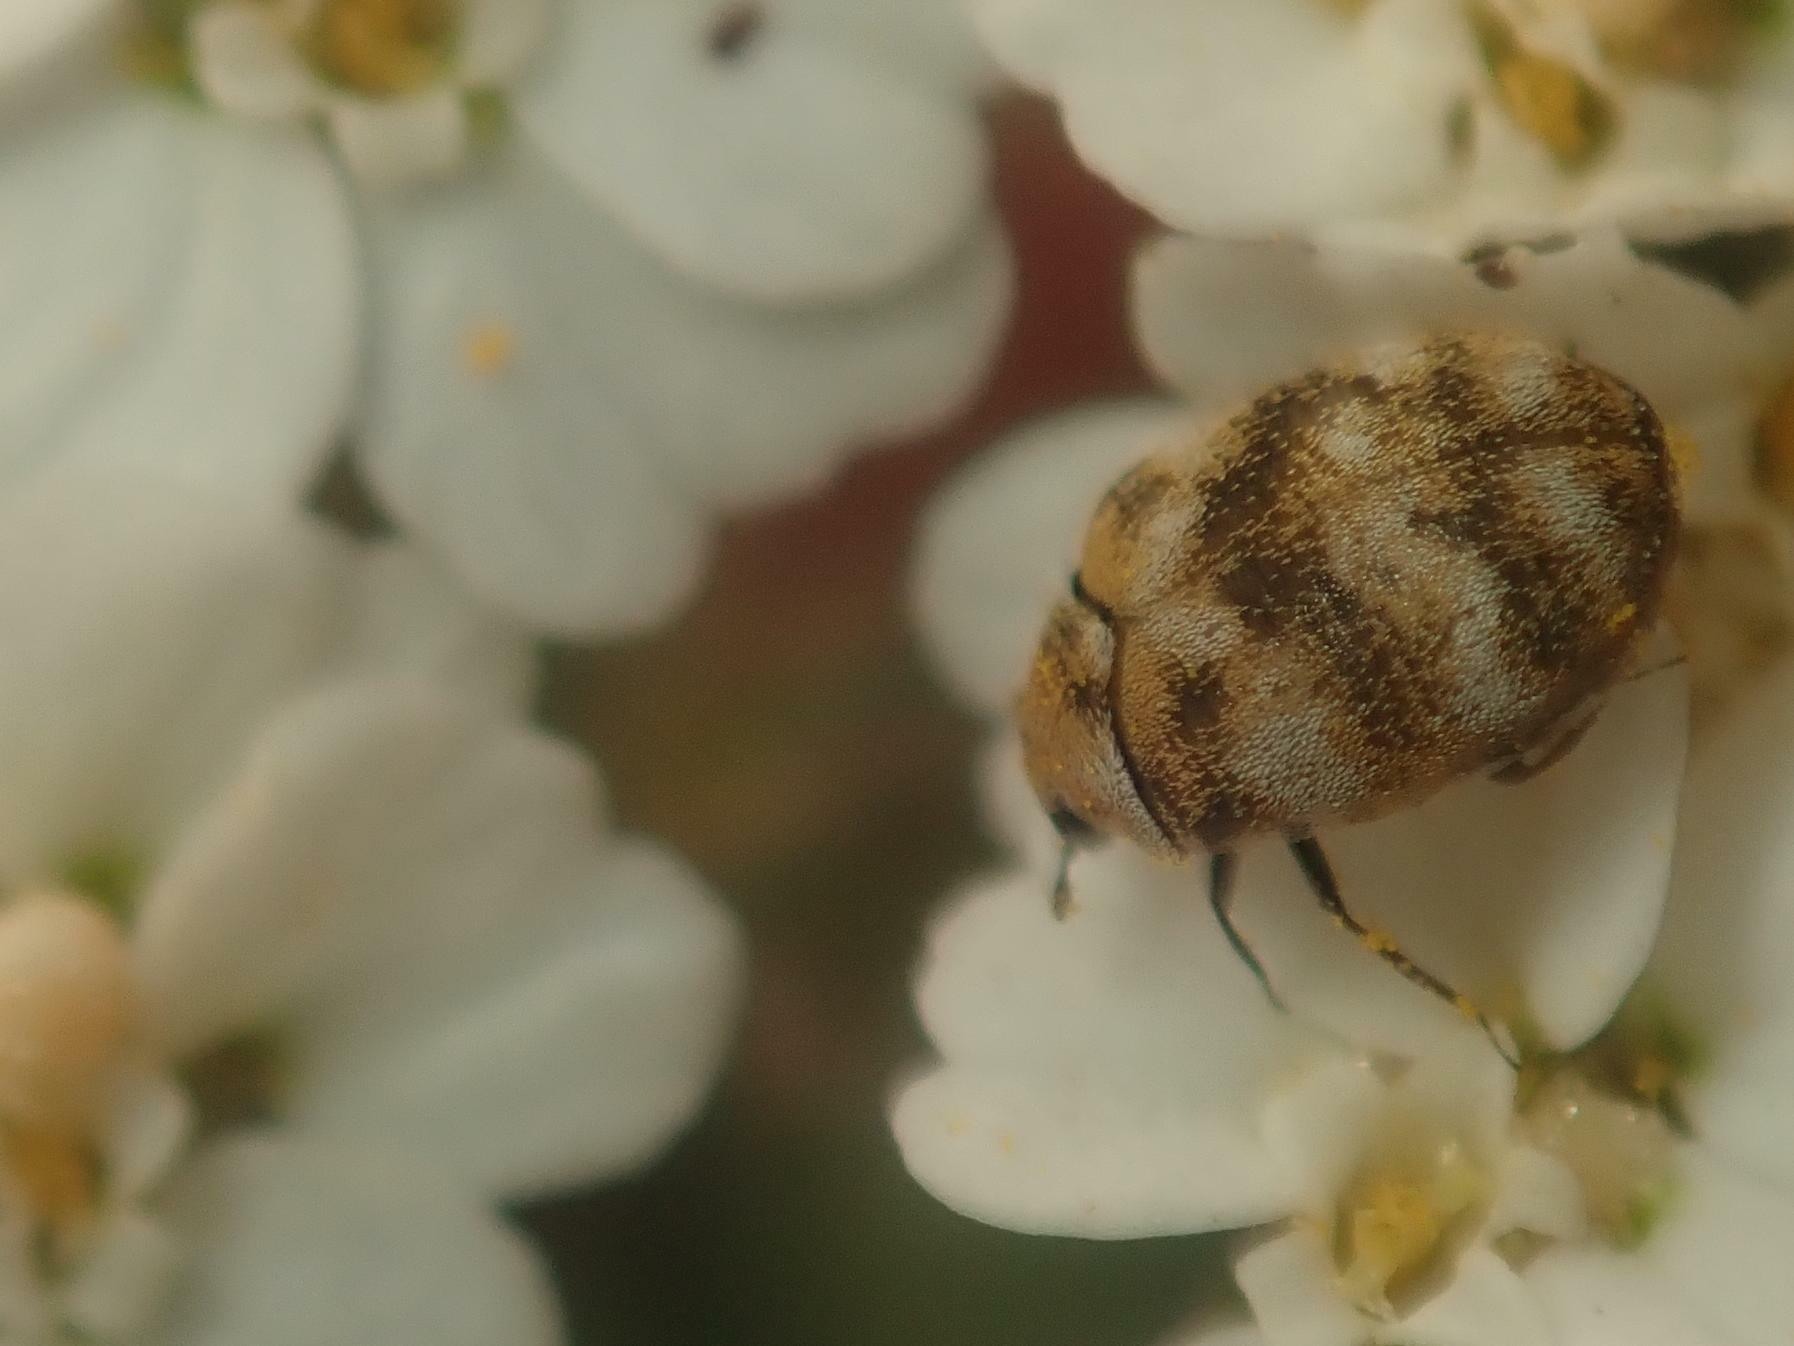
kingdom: Animalia
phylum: Arthropoda
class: Insecta
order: Coleoptera
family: Dermestidae
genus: Anthrenus
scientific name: Anthrenus verbasci
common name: Varied carpet beetle
